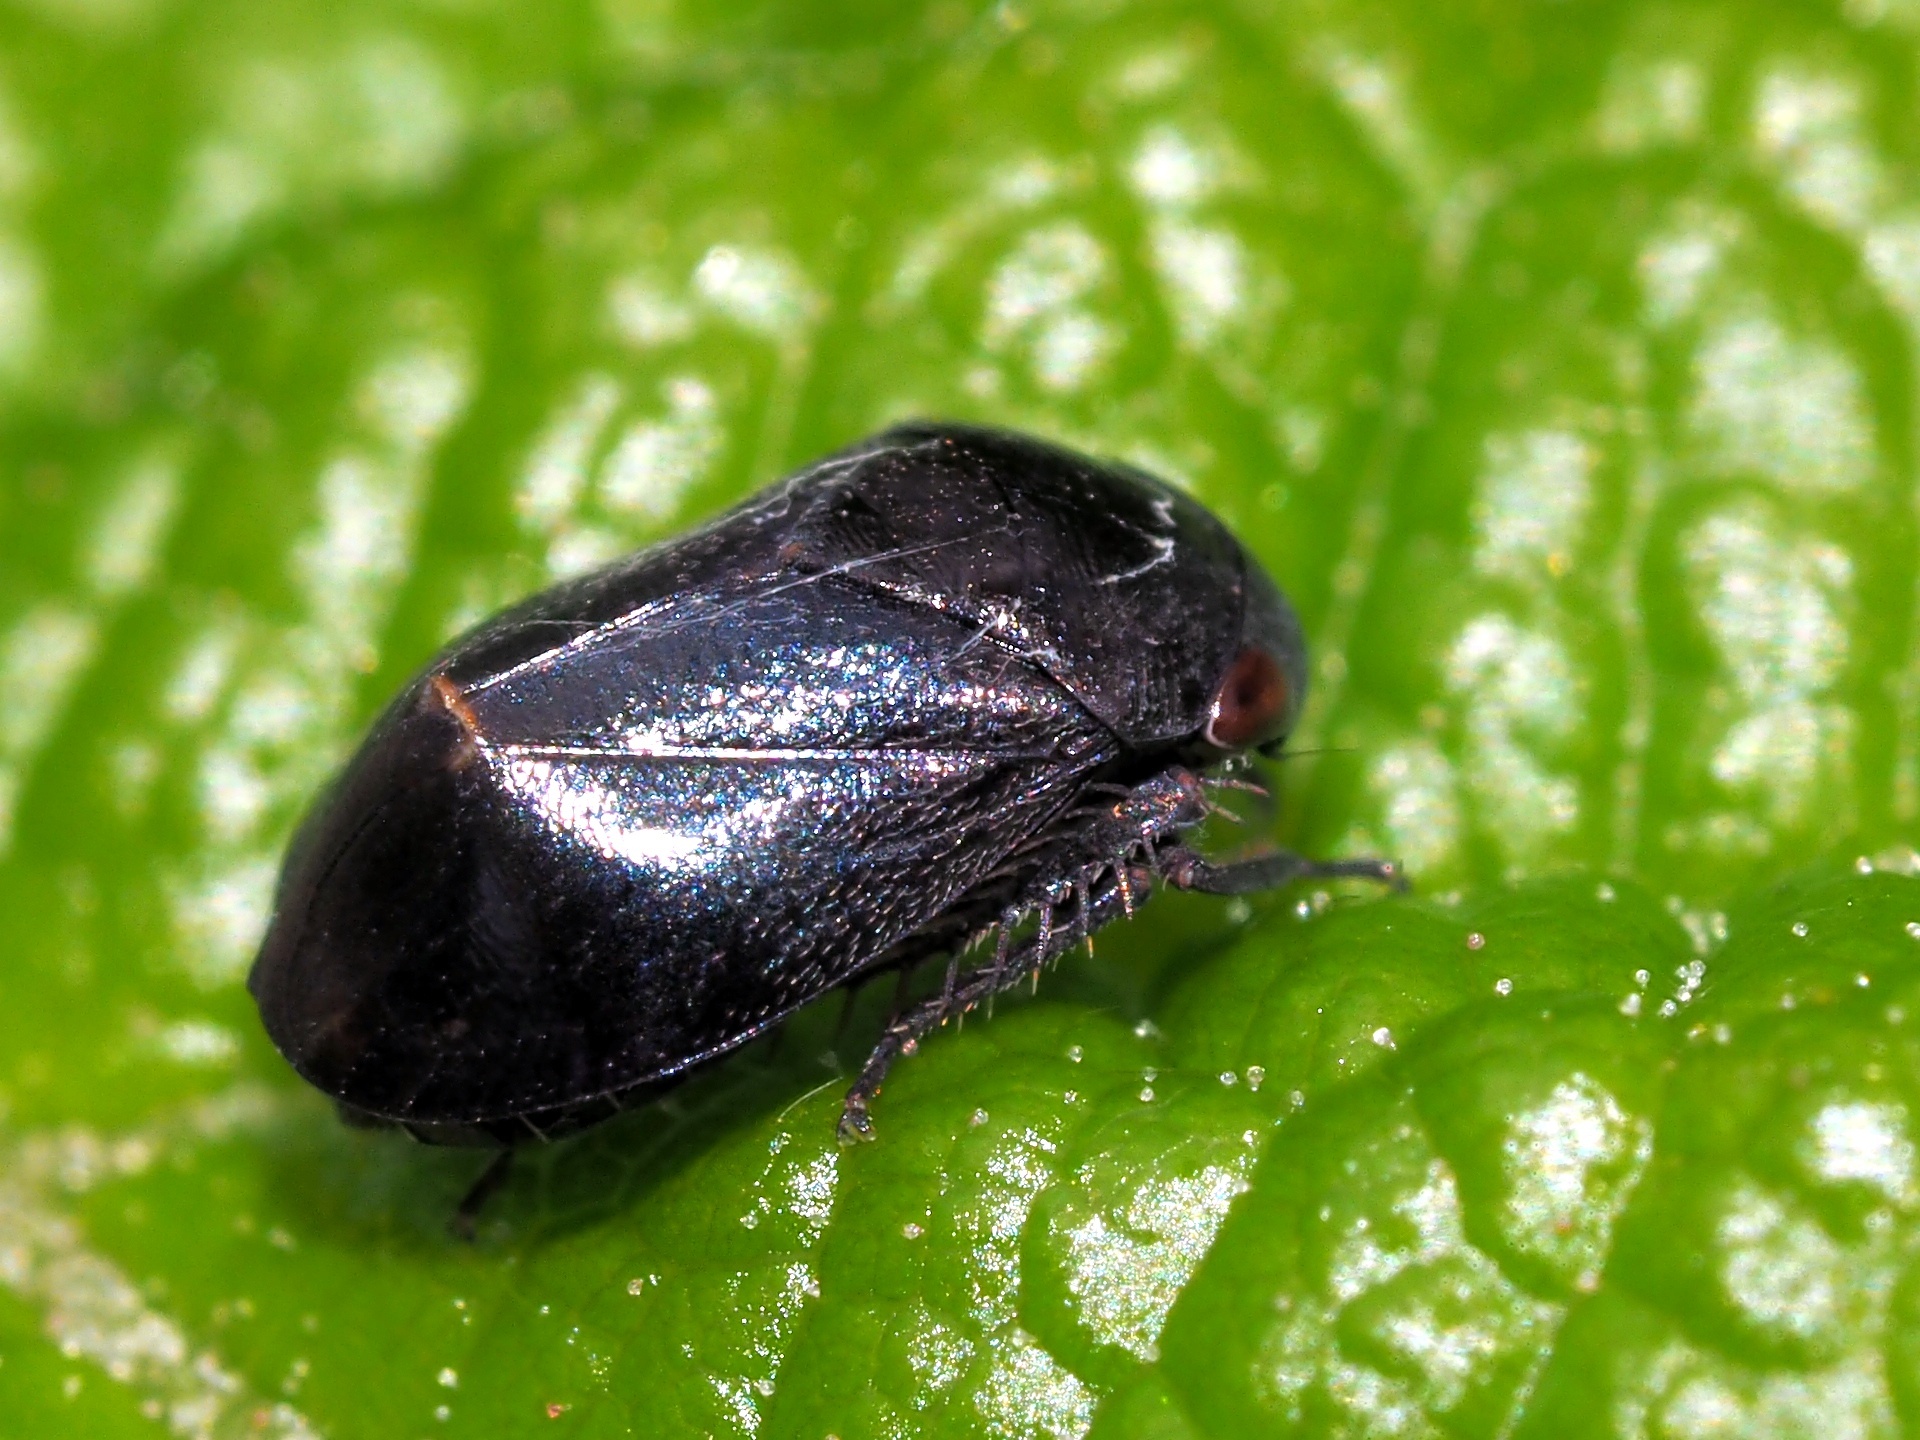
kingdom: Animalia
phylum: Arthropoda
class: Insecta
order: Hemiptera
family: Cicadellidae
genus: Penthimia
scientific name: Penthimia nigra
